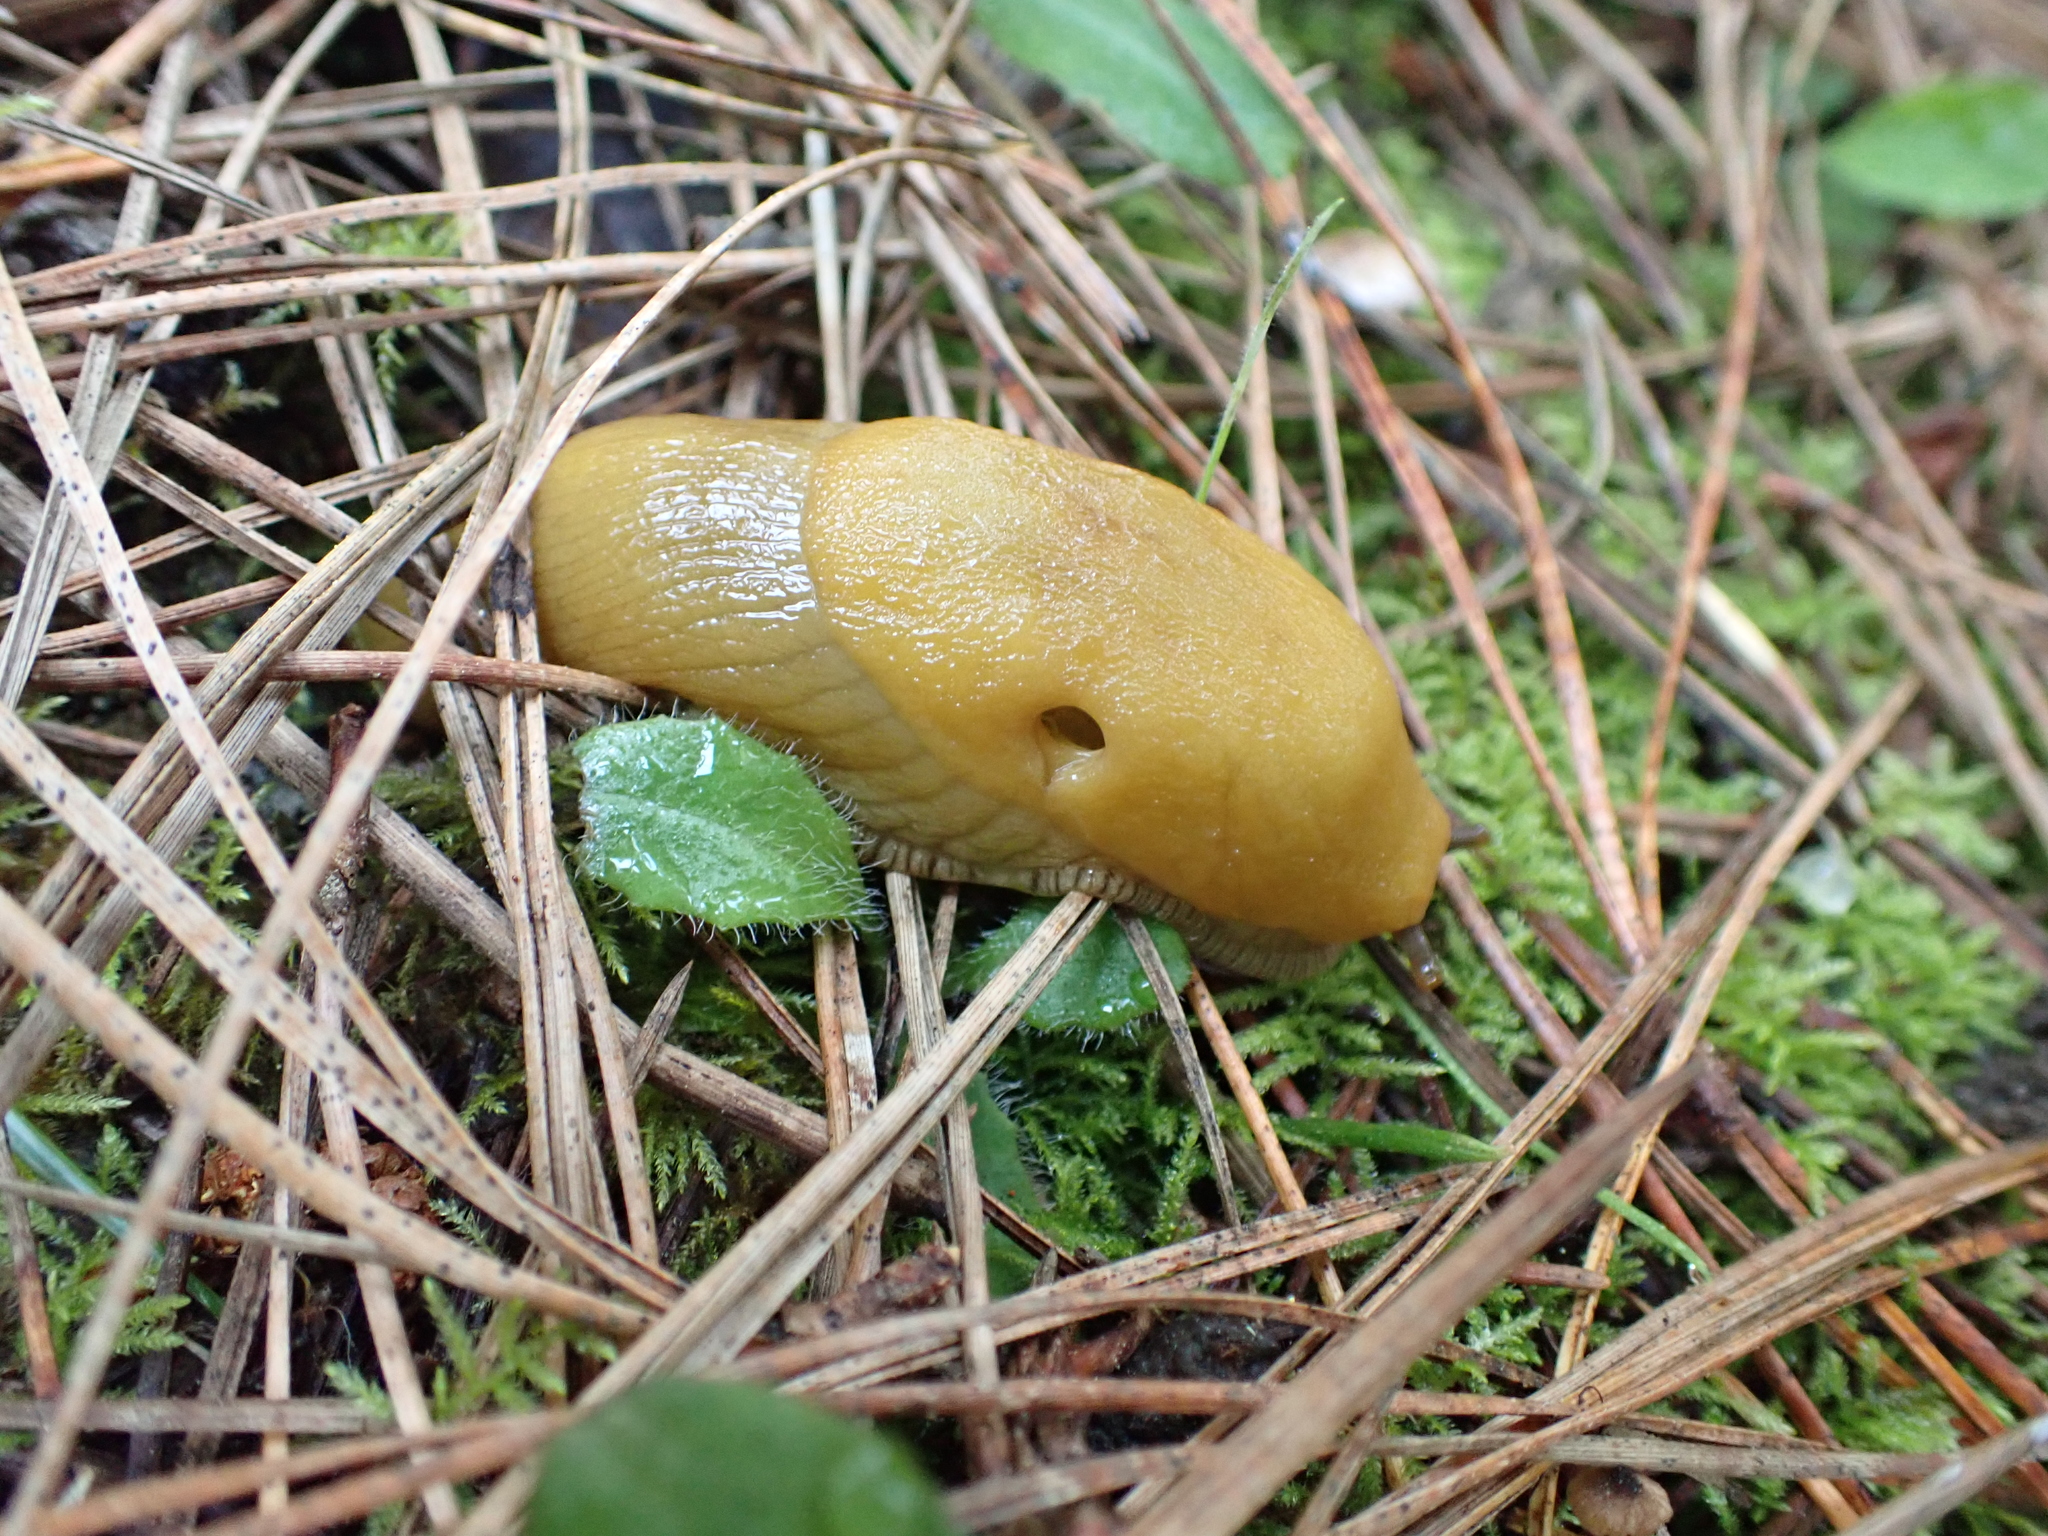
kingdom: Animalia
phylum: Mollusca
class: Gastropoda
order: Stylommatophora
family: Ariolimacidae
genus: Ariolimax
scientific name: Ariolimax californicus
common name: California banana slug
